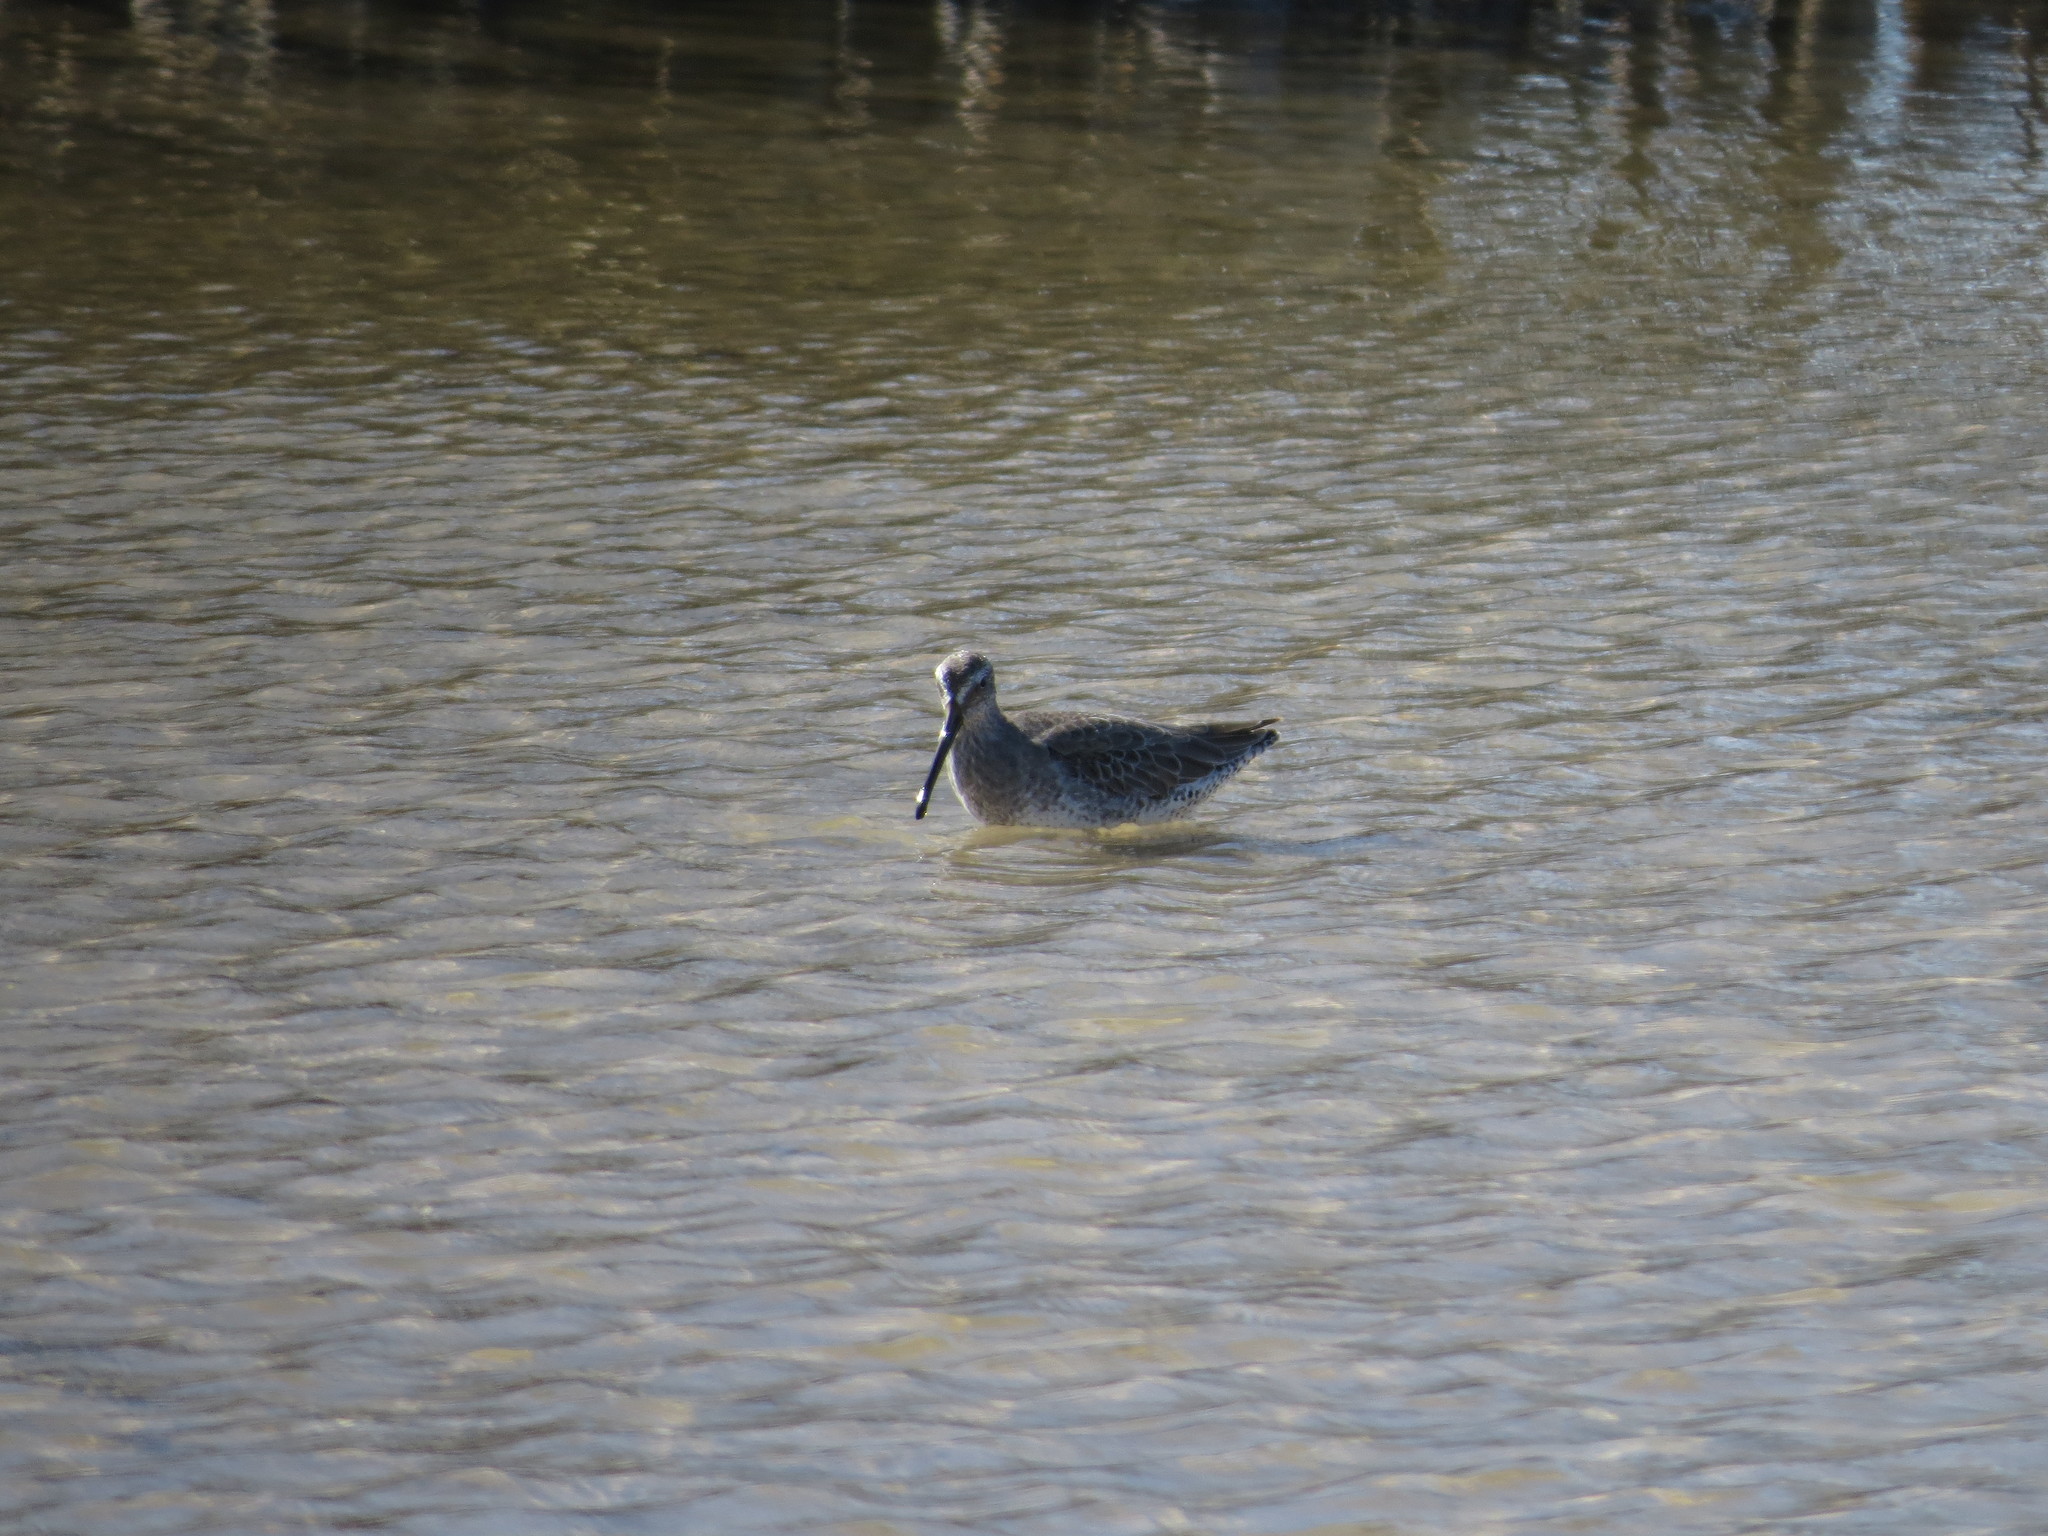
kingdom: Animalia
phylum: Chordata
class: Aves
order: Charadriiformes
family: Scolopacidae
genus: Limnodromus
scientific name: Limnodromus griseus
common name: Short-billed dowitcher
